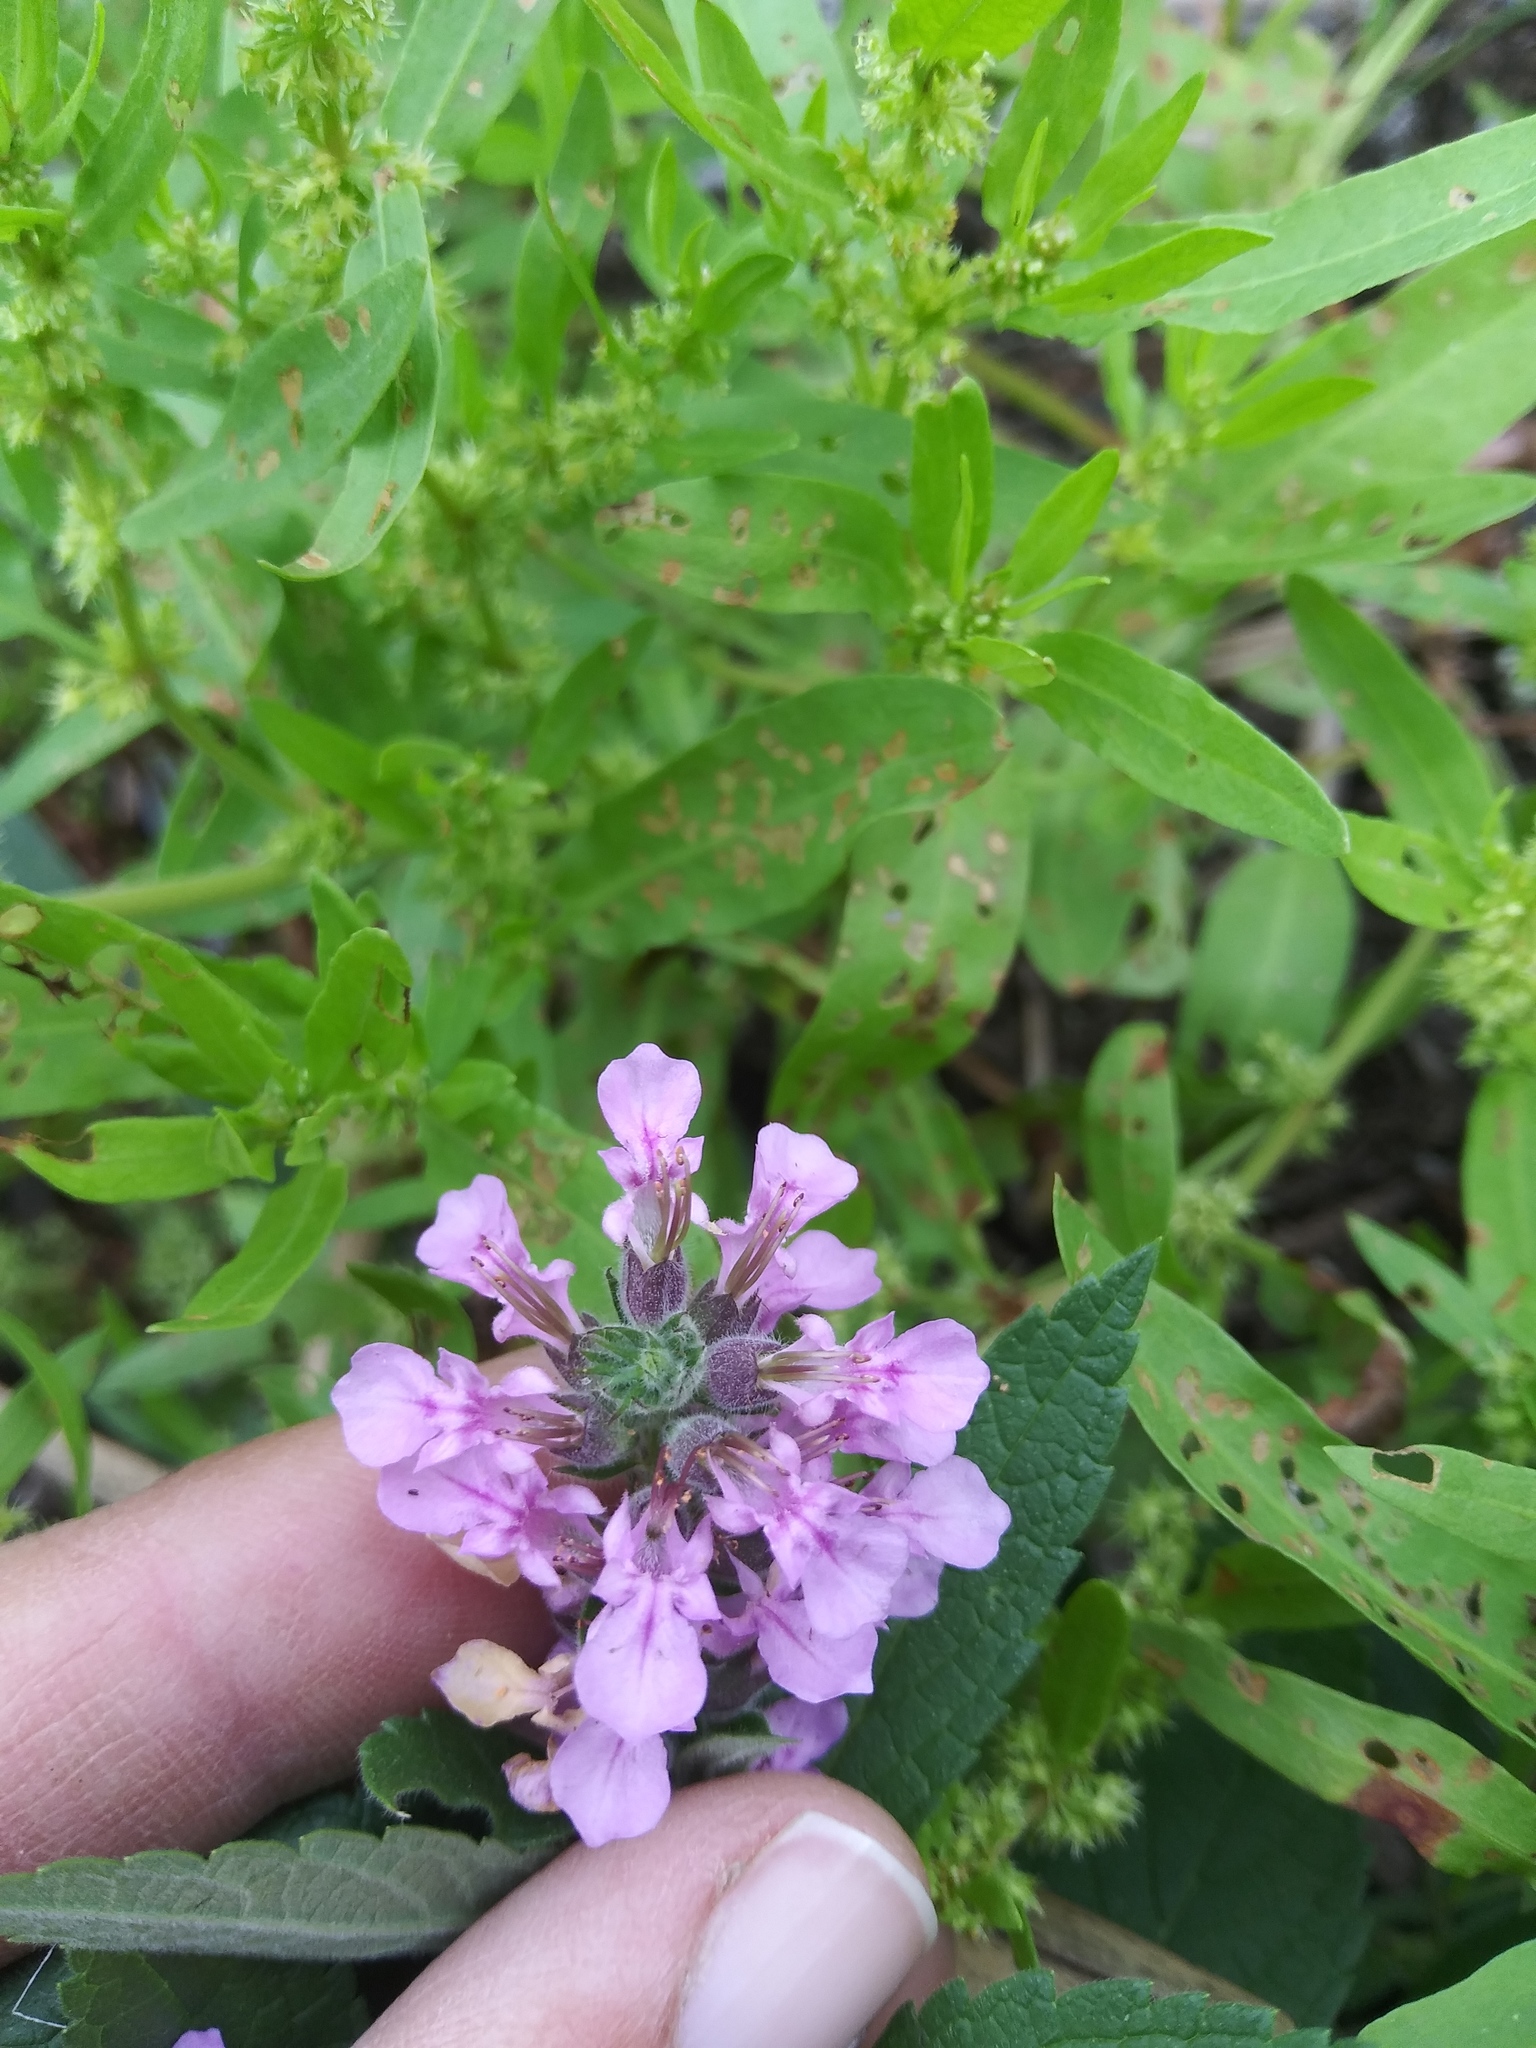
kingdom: Plantae
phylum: Tracheophyta
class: Magnoliopsida
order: Lamiales
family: Lamiaceae
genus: Teucrium
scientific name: Teucrium canadense
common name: American germander
